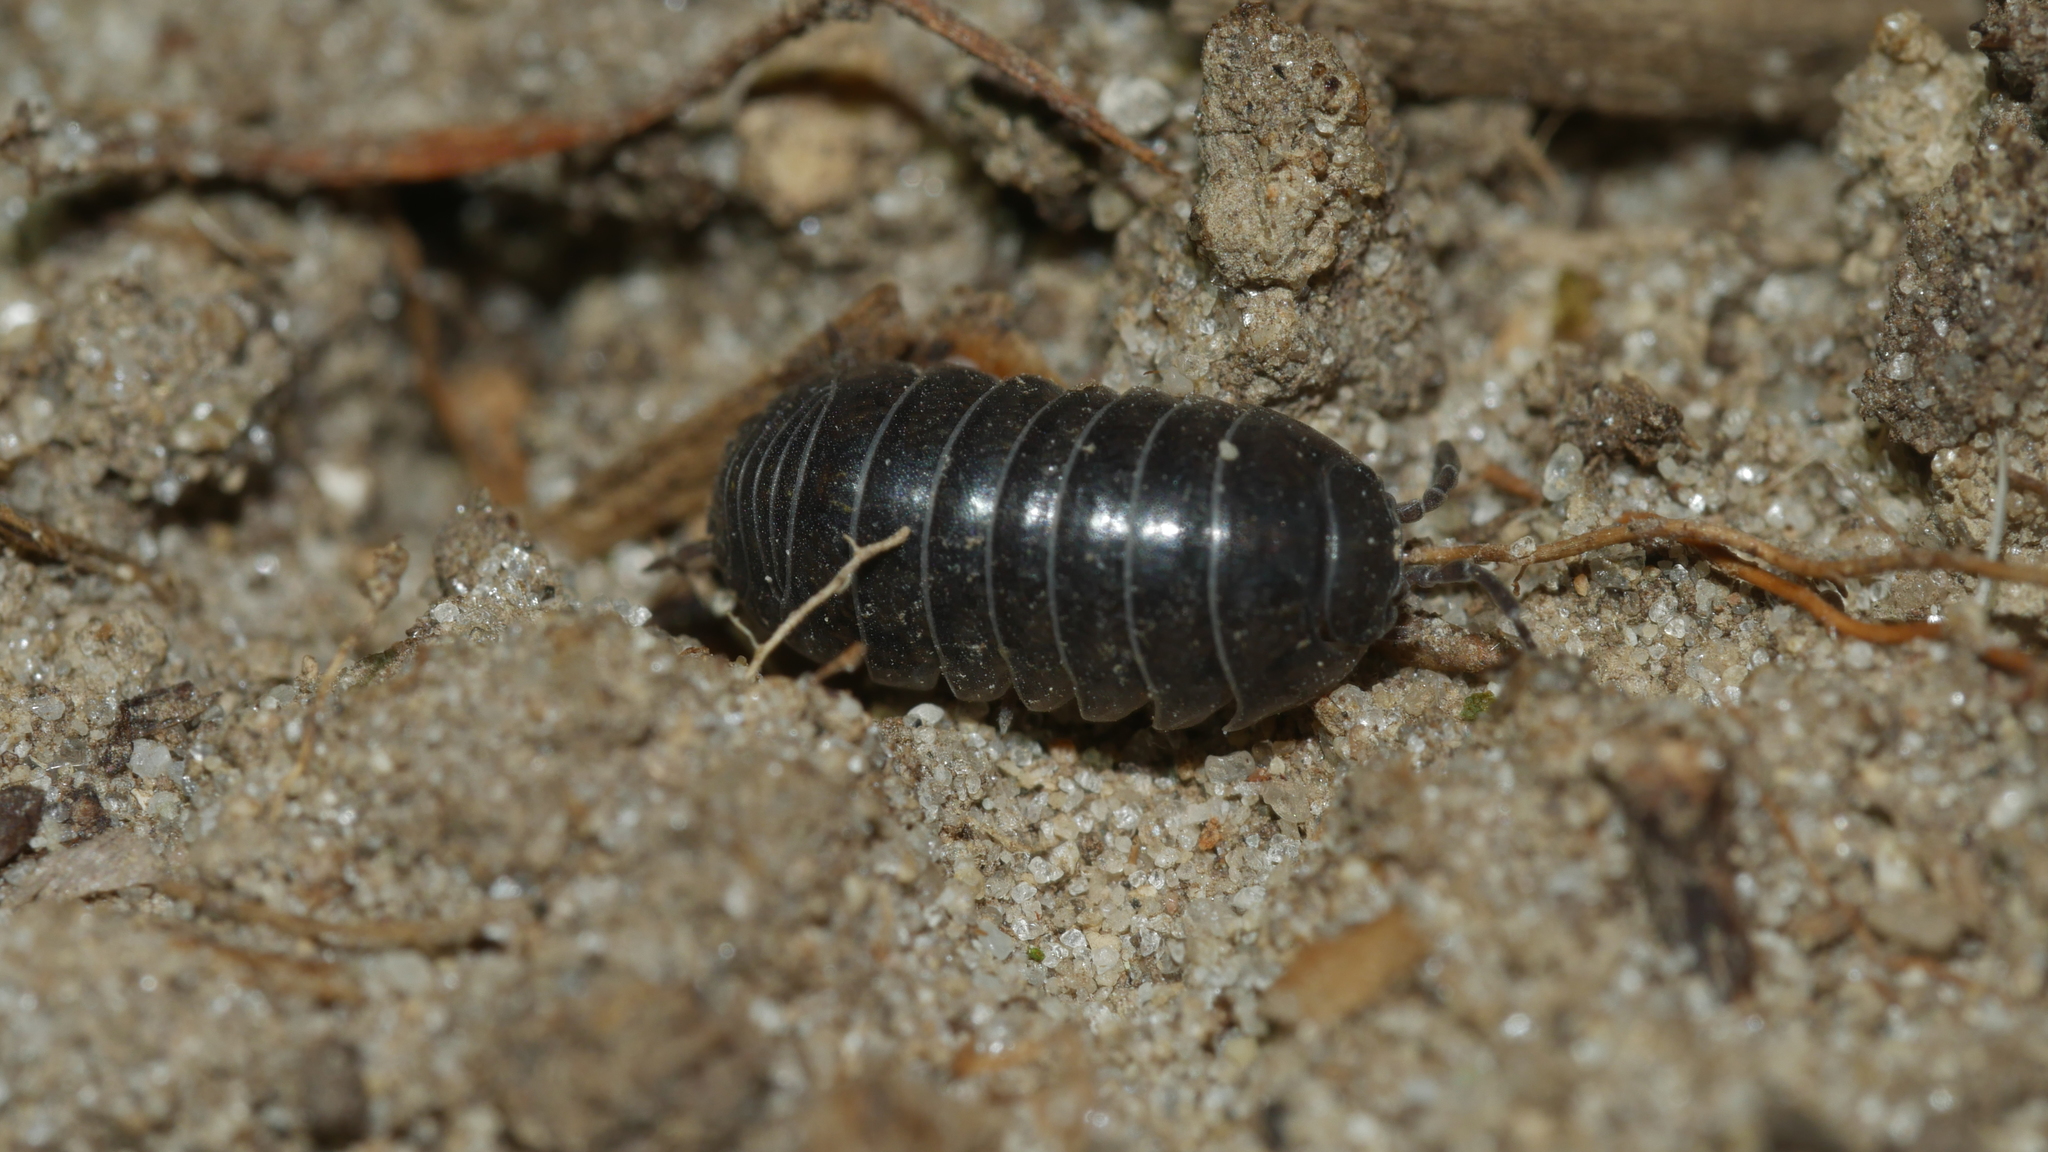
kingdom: Animalia
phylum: Arthropoda
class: Malacostraca
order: Isopoda
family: Armadillidiidae
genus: Armadillidium
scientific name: Armadillidium vulgare
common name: Common pill woodlouse
